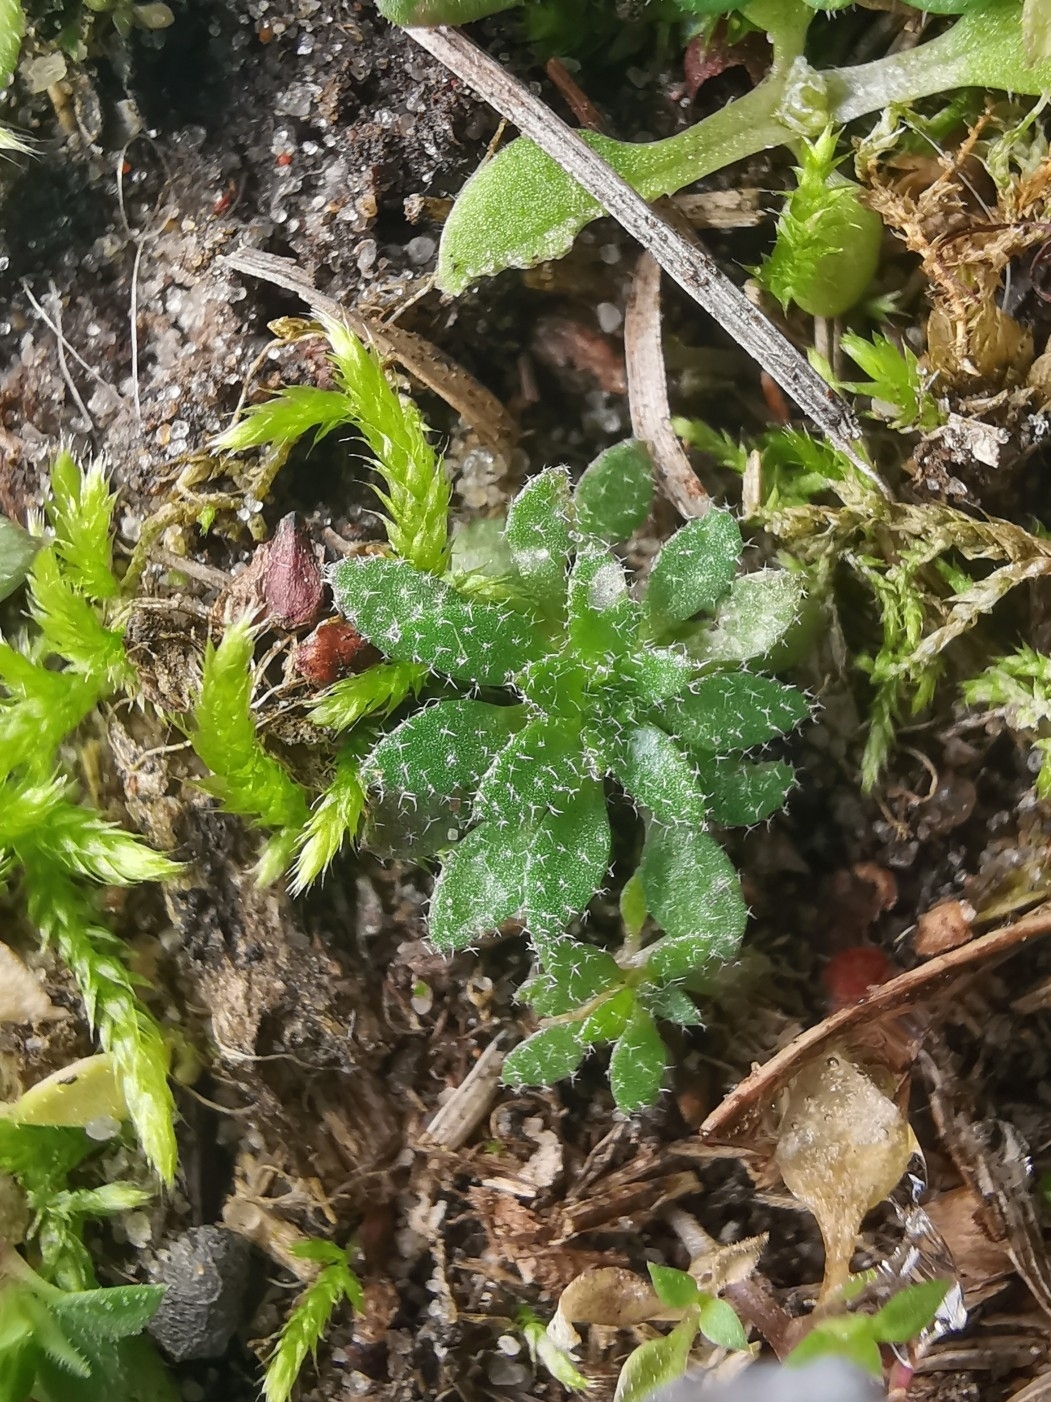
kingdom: Plantae
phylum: Tracheophyta
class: Magnoliopsida
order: Brassicales
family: Brassicaceae
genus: Draba
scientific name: Draba verna
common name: Spring draba
